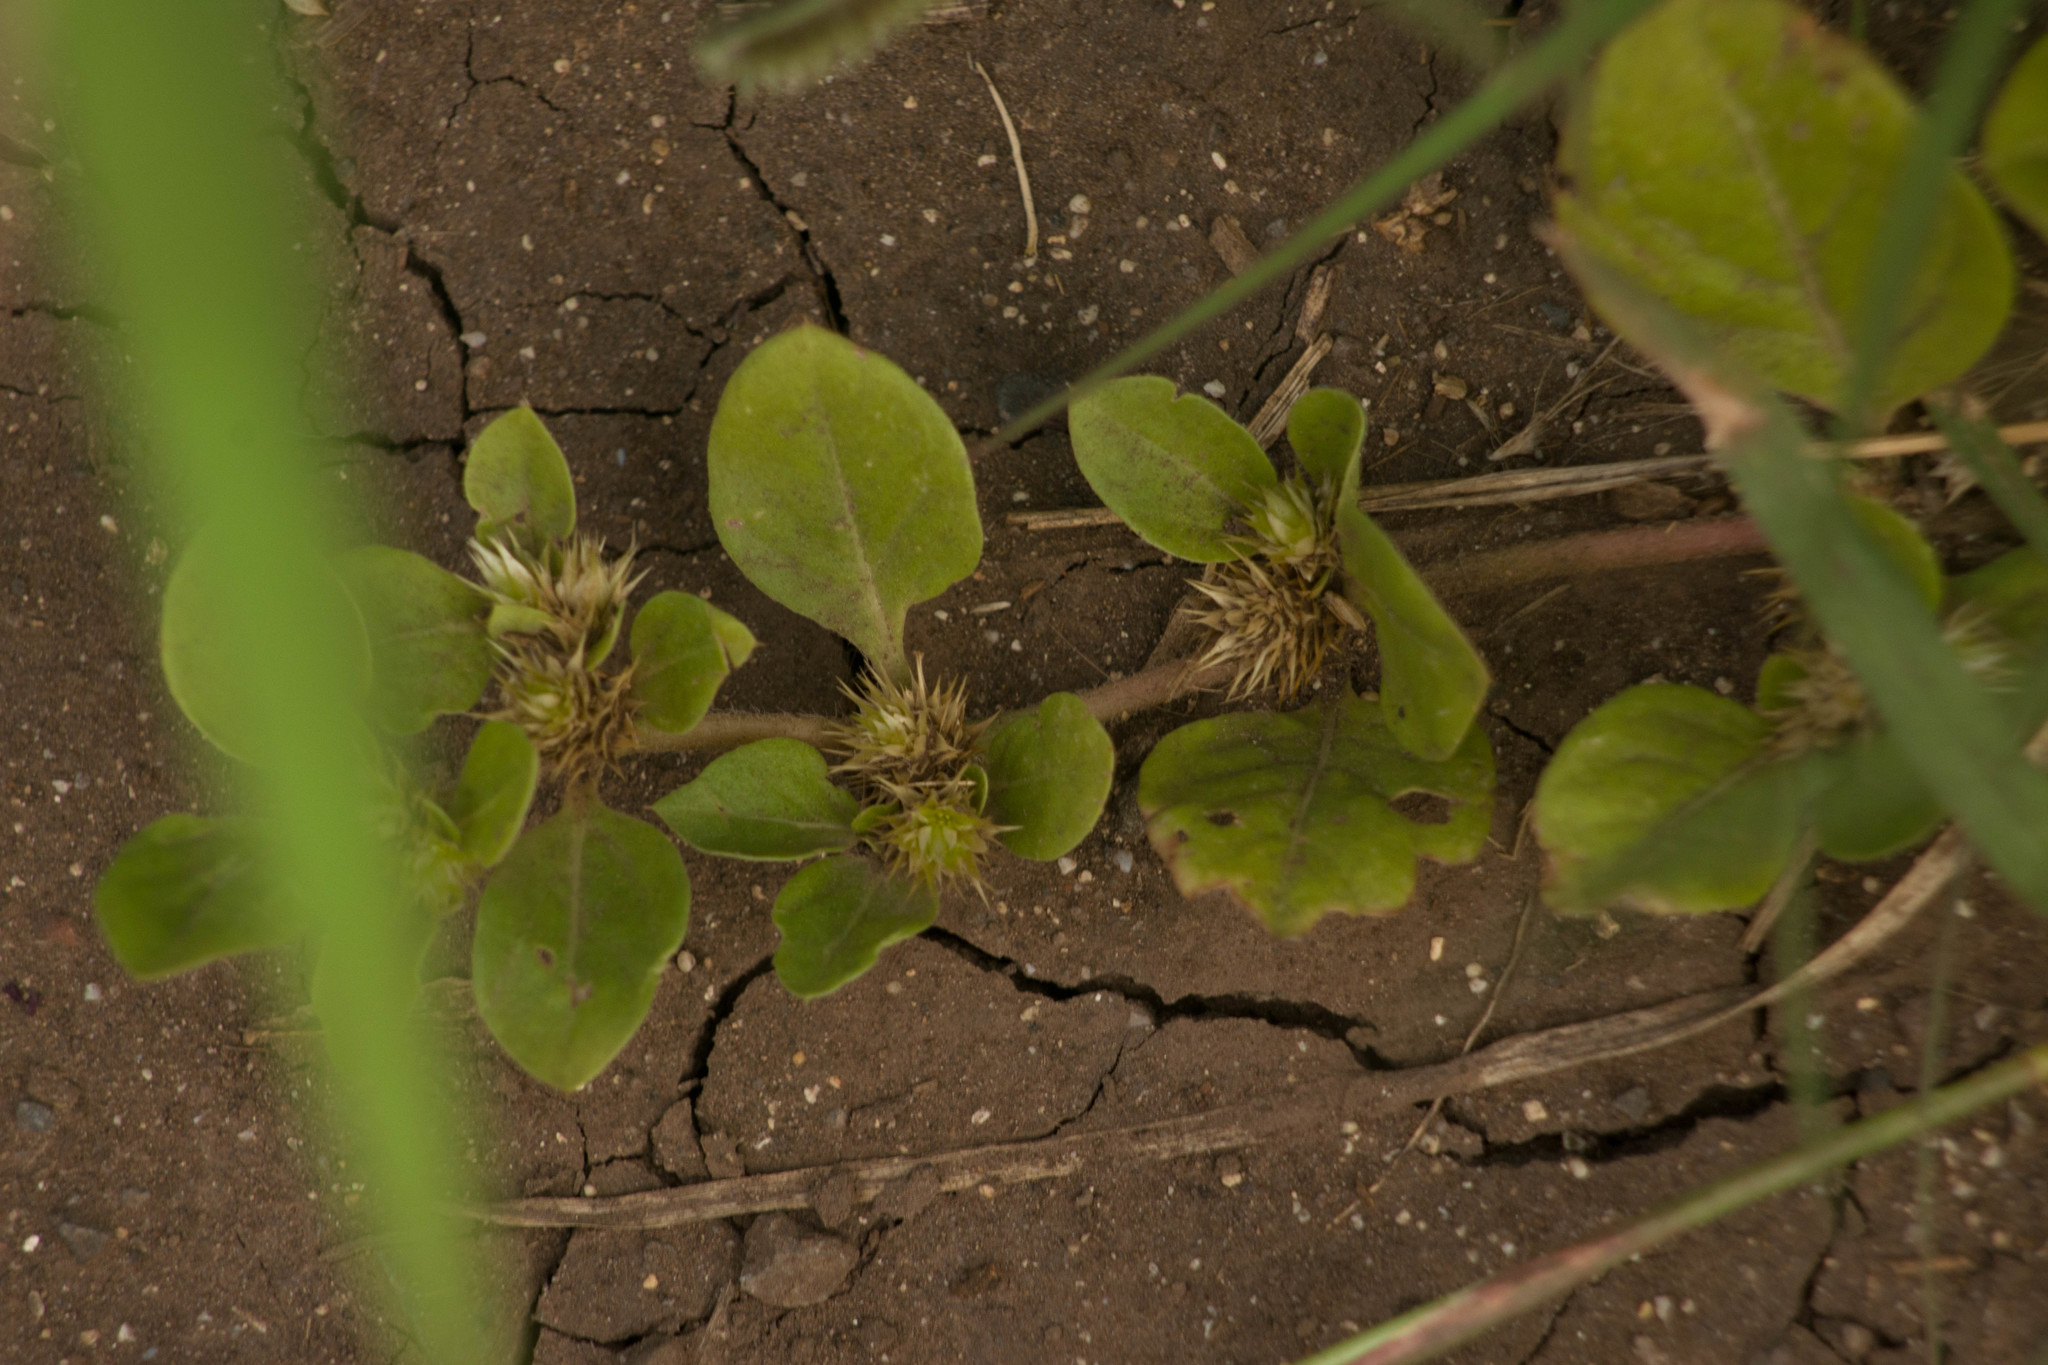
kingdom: Plantae
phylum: Tracheophyta
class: Magnoliopsida
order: Caryophyllales
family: Amaranthaceae
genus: Alternanthera
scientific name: Alternanthera pungens
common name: Khakiweed
